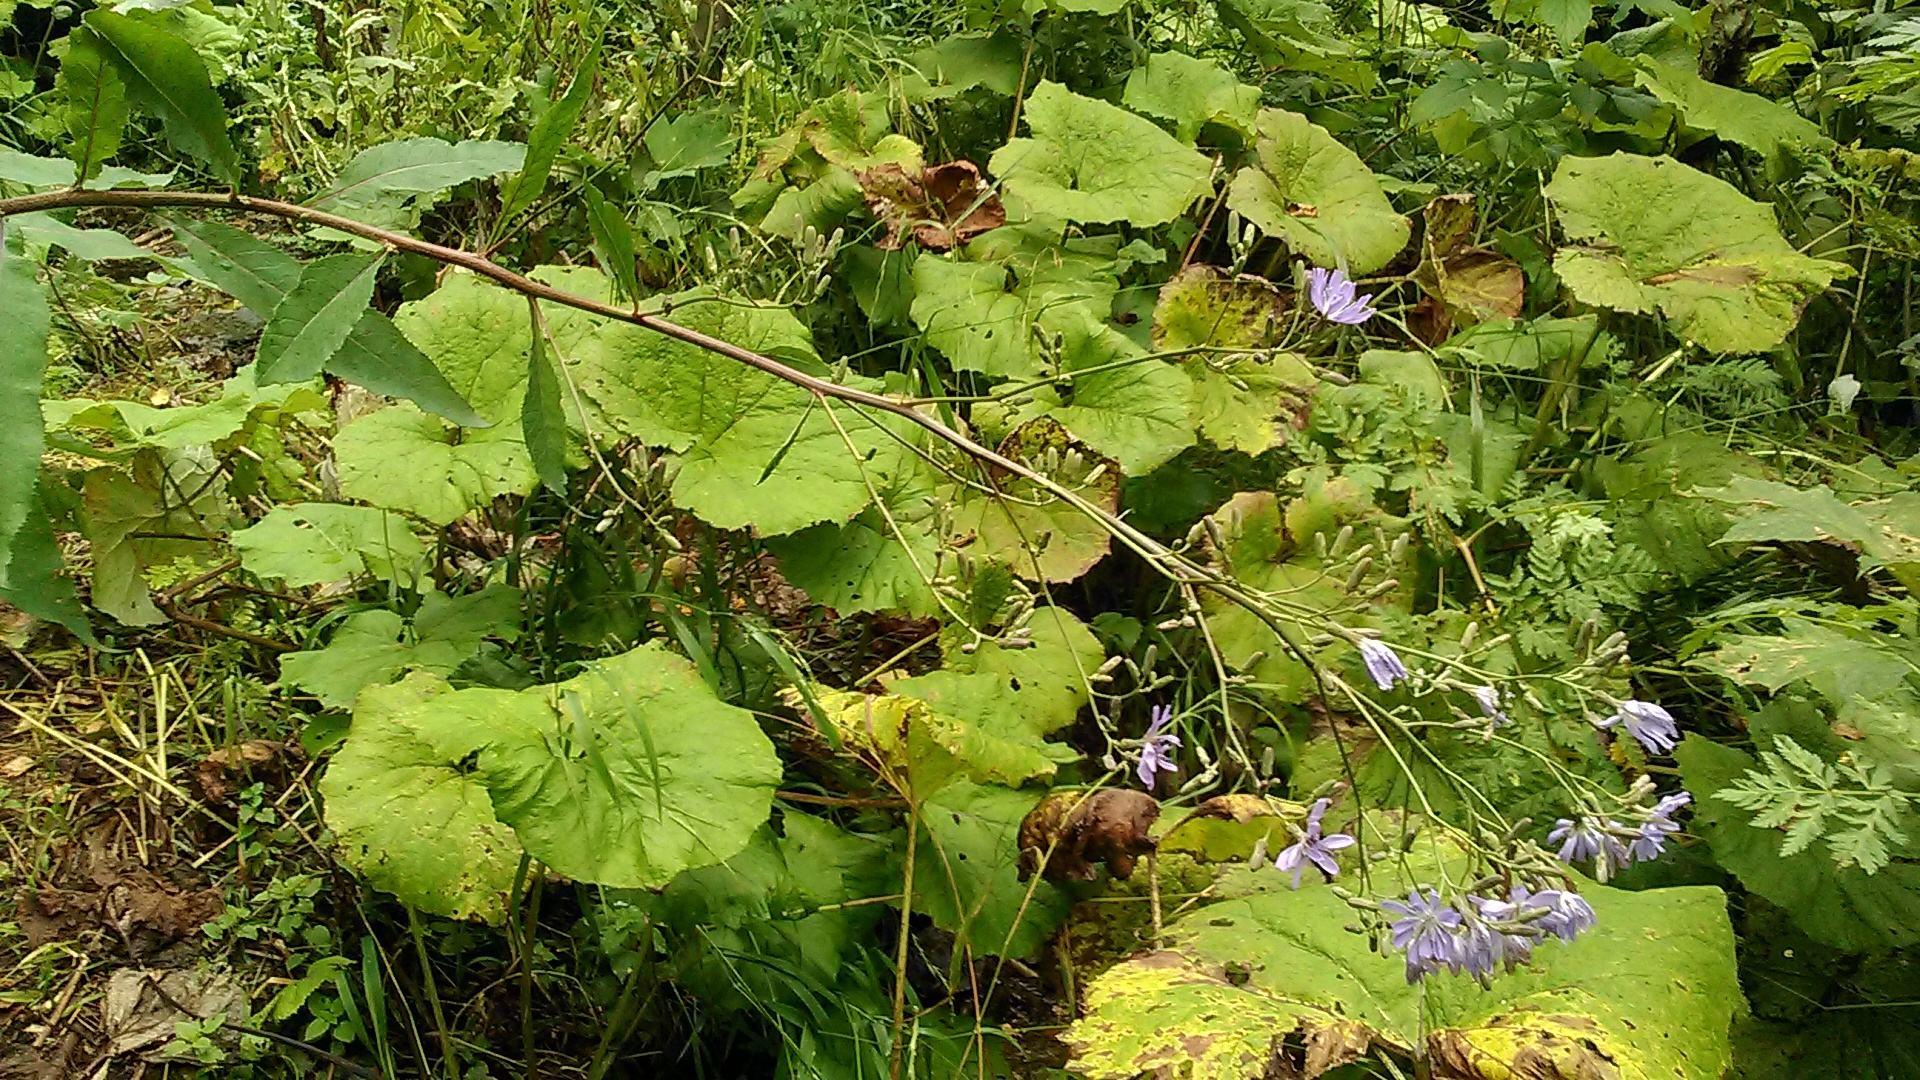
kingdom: Plantae
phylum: Tracheophyta
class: Magnoliopsida
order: Asterales
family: Asteraceae
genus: Cicerbita
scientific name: Cicerbita prenanthoides
